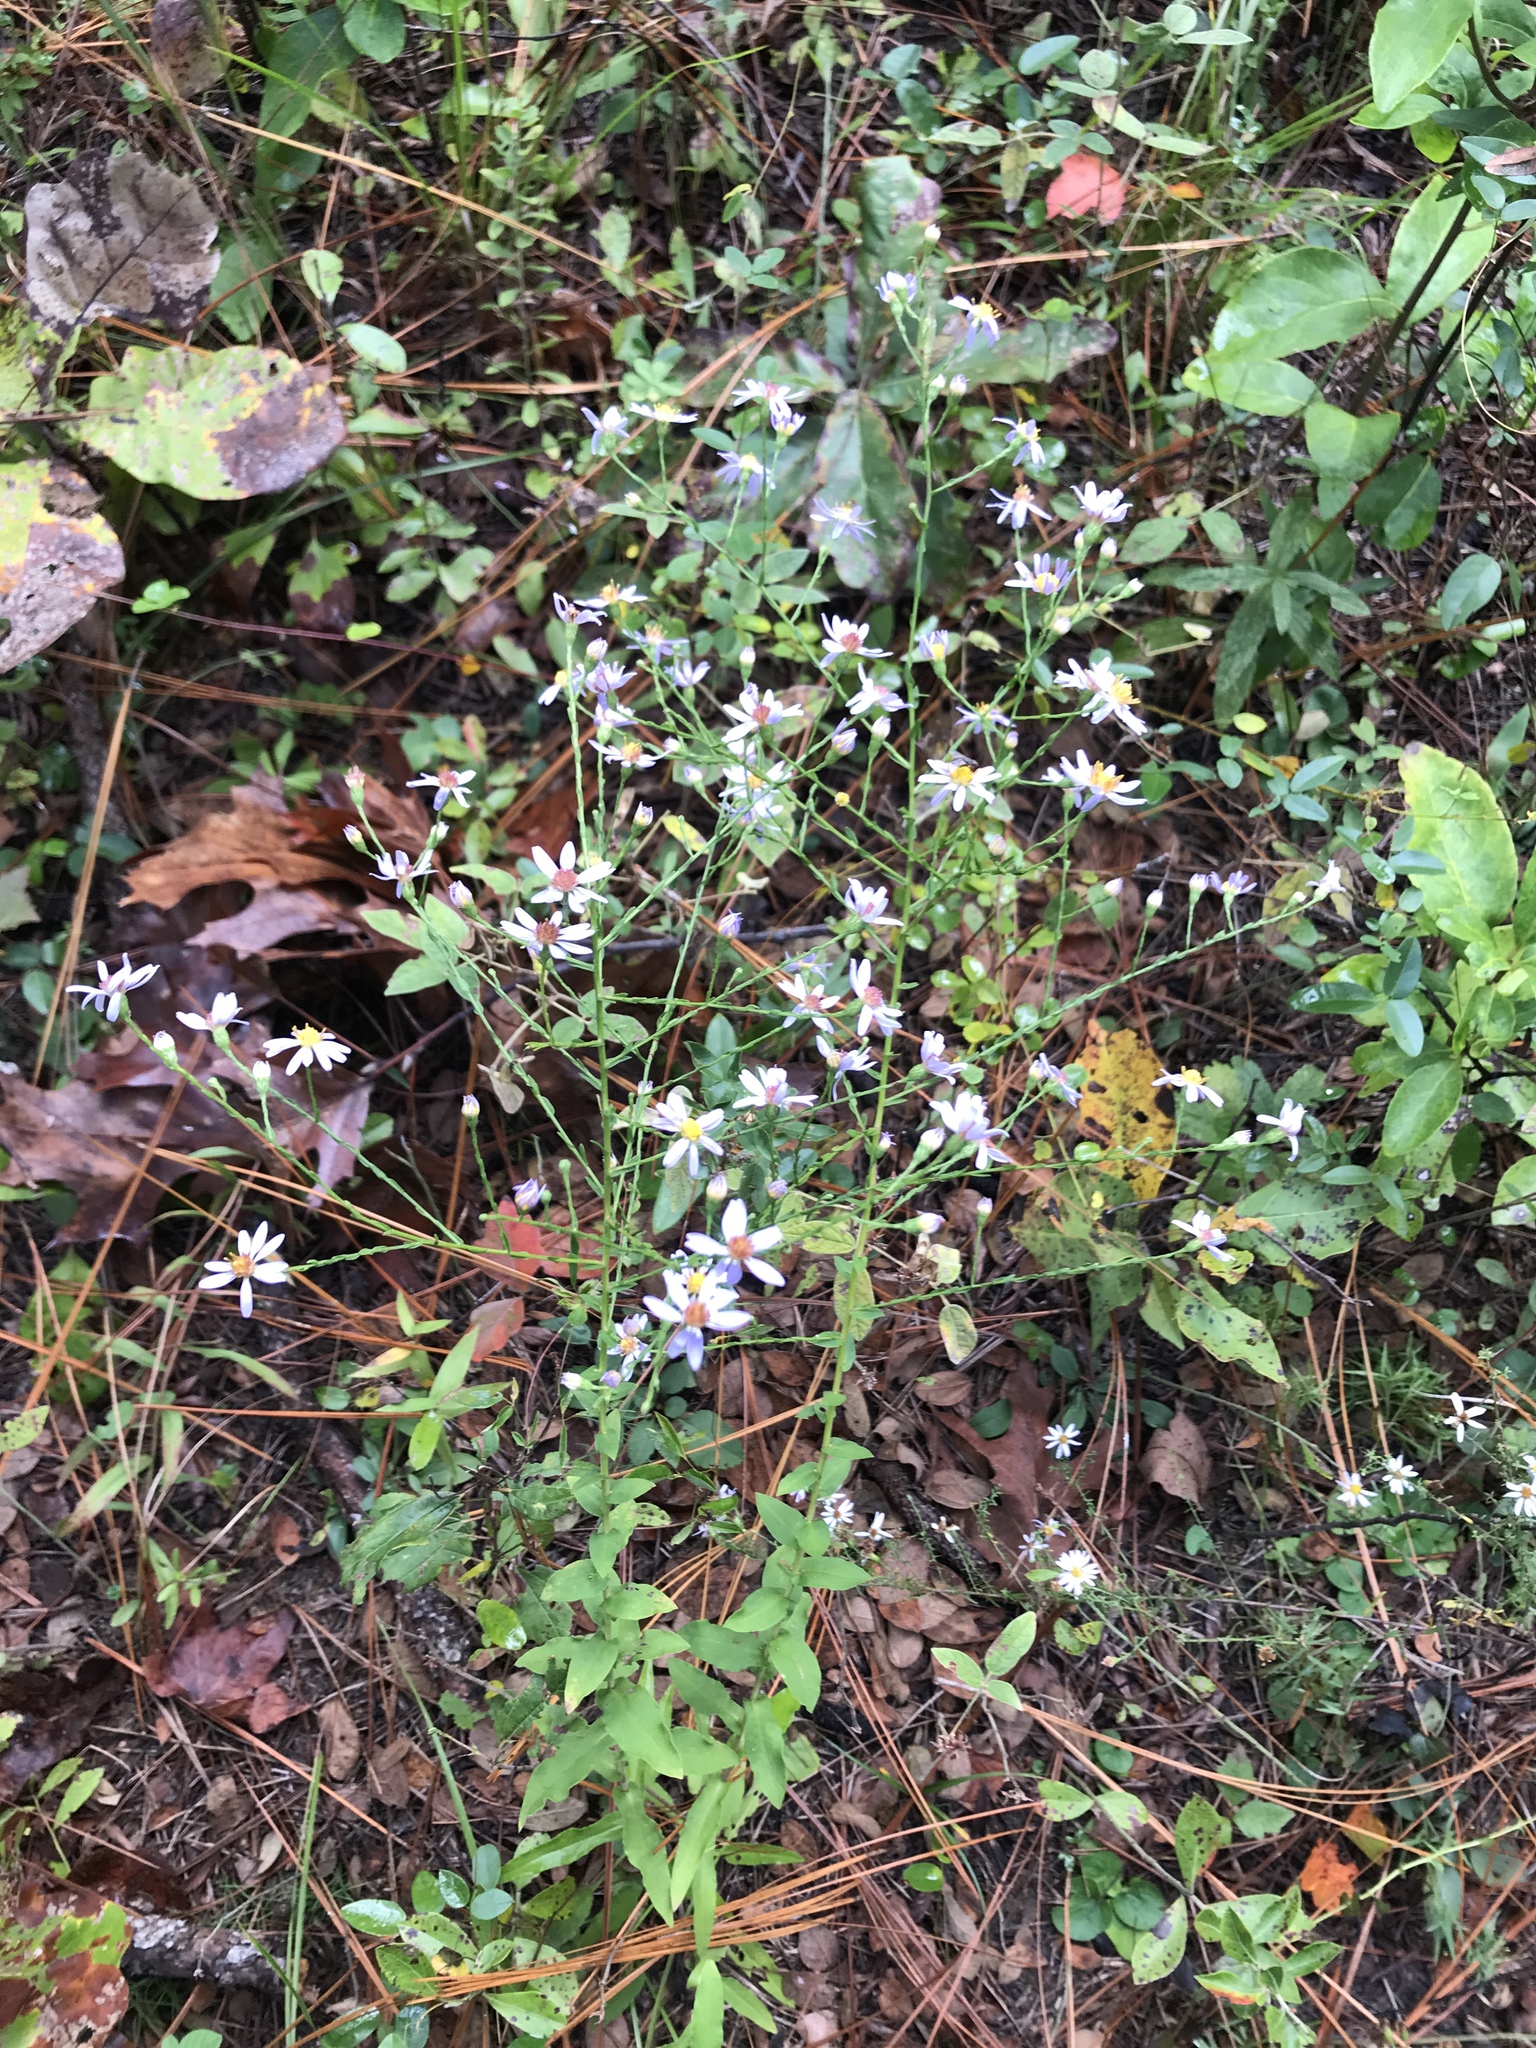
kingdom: Plantae
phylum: Tracheophyta
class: Magnoliopsida
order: Asterales
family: Asteraceae
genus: Symphyotrichum
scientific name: Symphyotrichum undulatum
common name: Clasping heart-leaf aster
